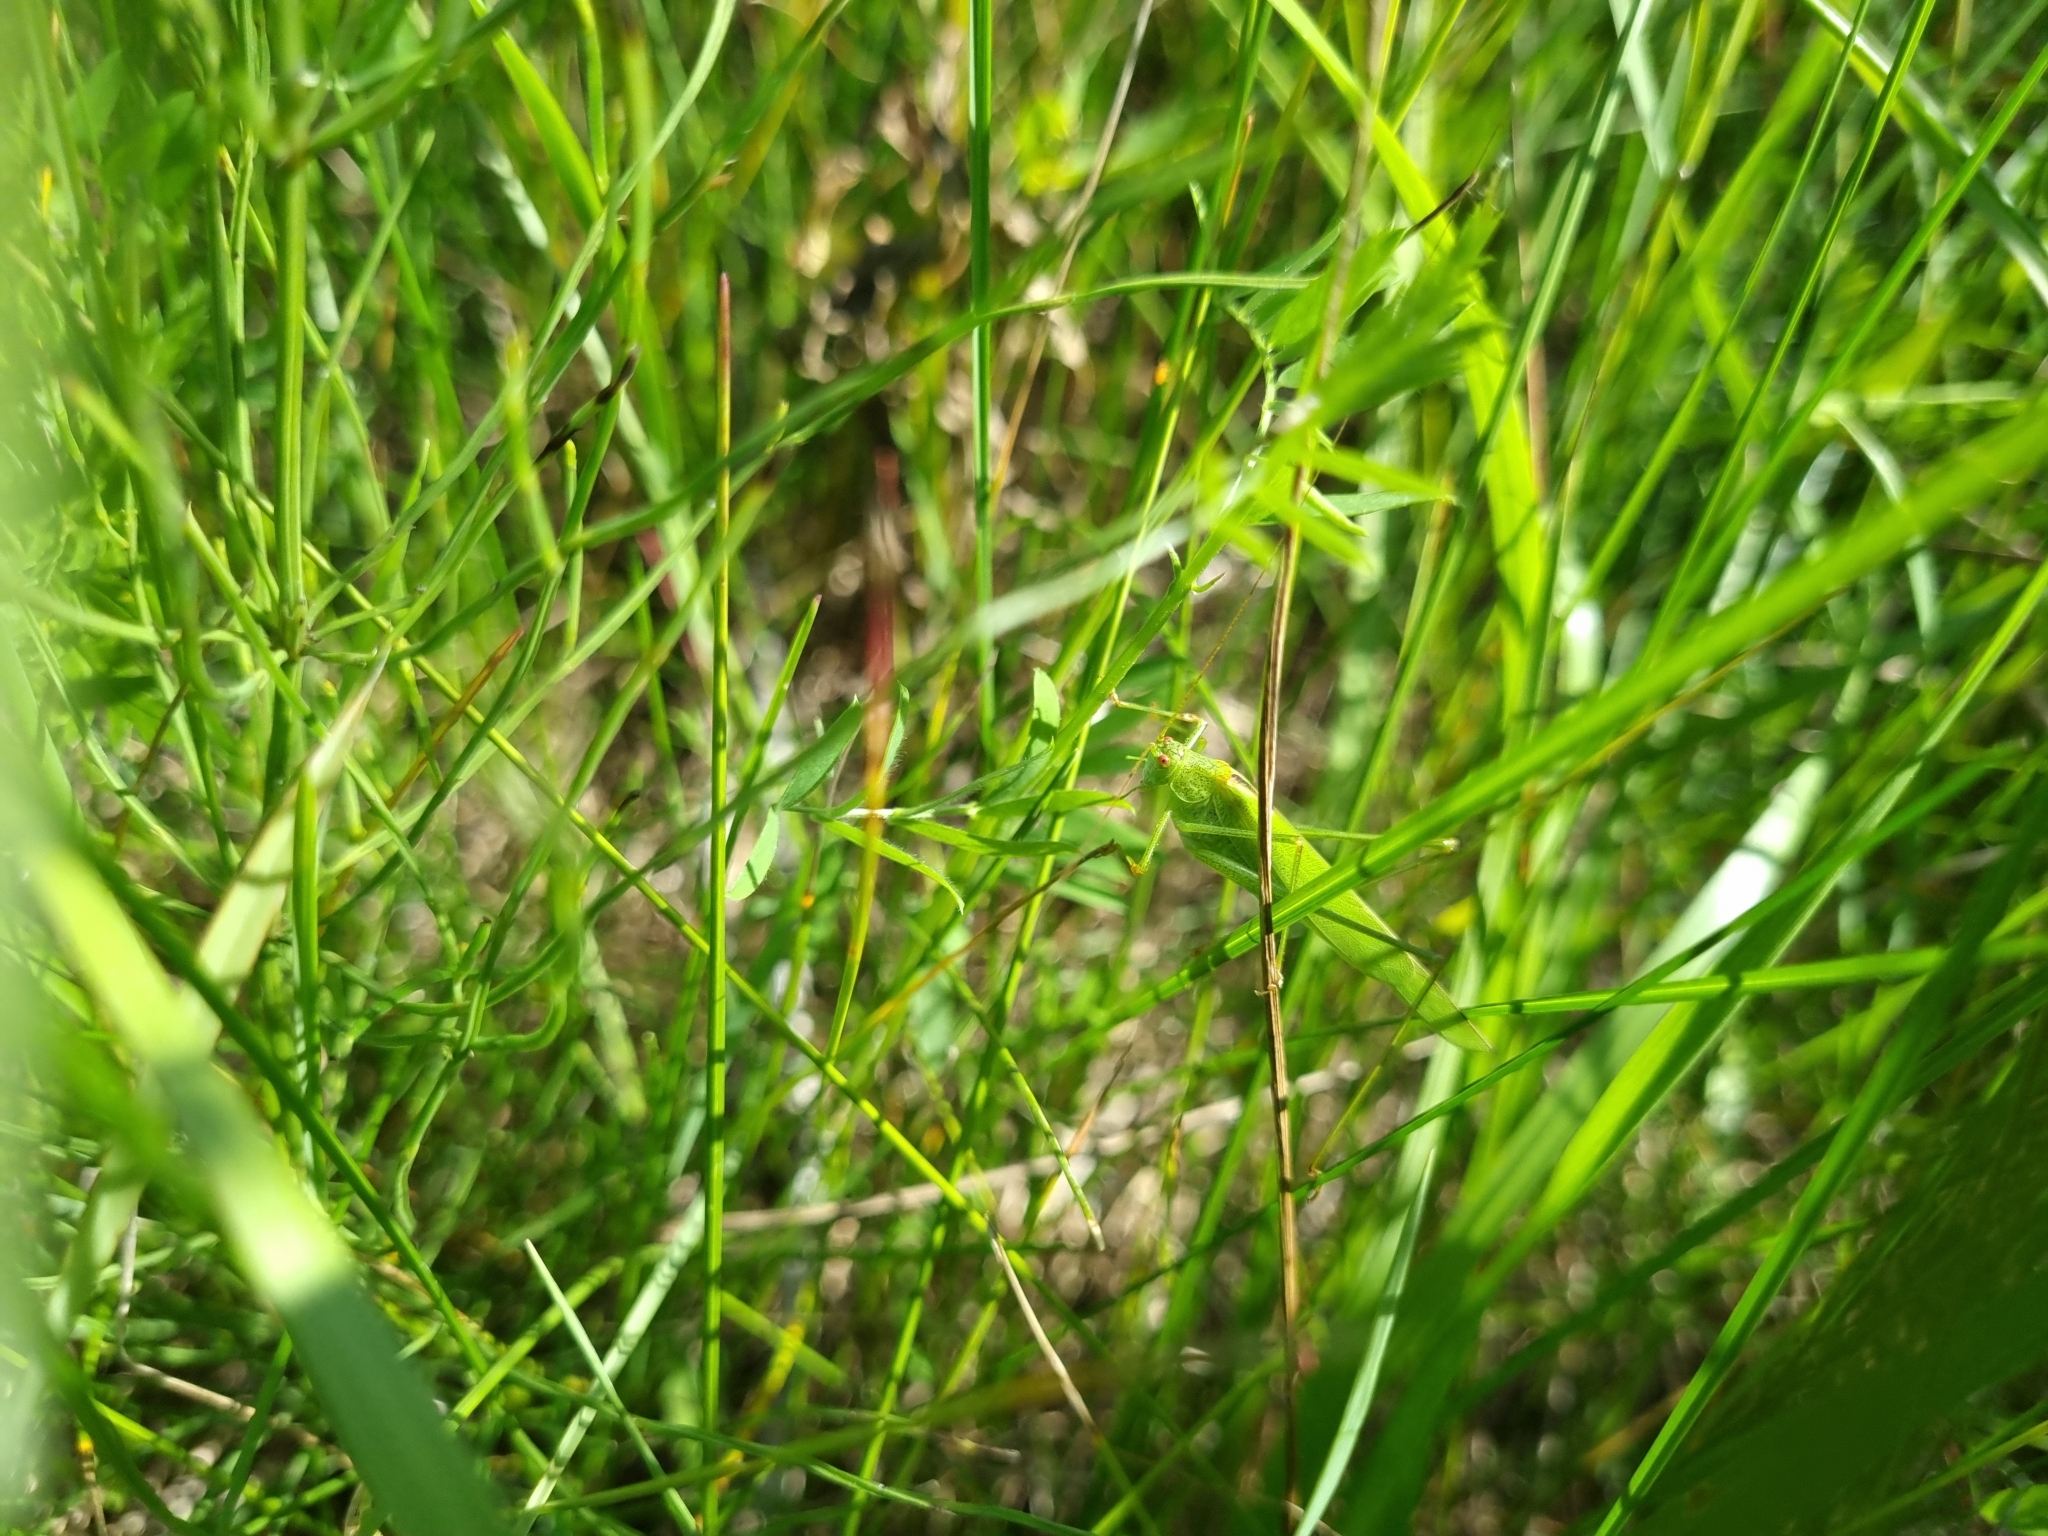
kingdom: Animalia
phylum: Arthropoda
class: Insecta
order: Orthoptera
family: Tettigoniidae
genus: Phaneroptera
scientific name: Phaneroptera falcata
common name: Sickle-bearing bush-cricket
